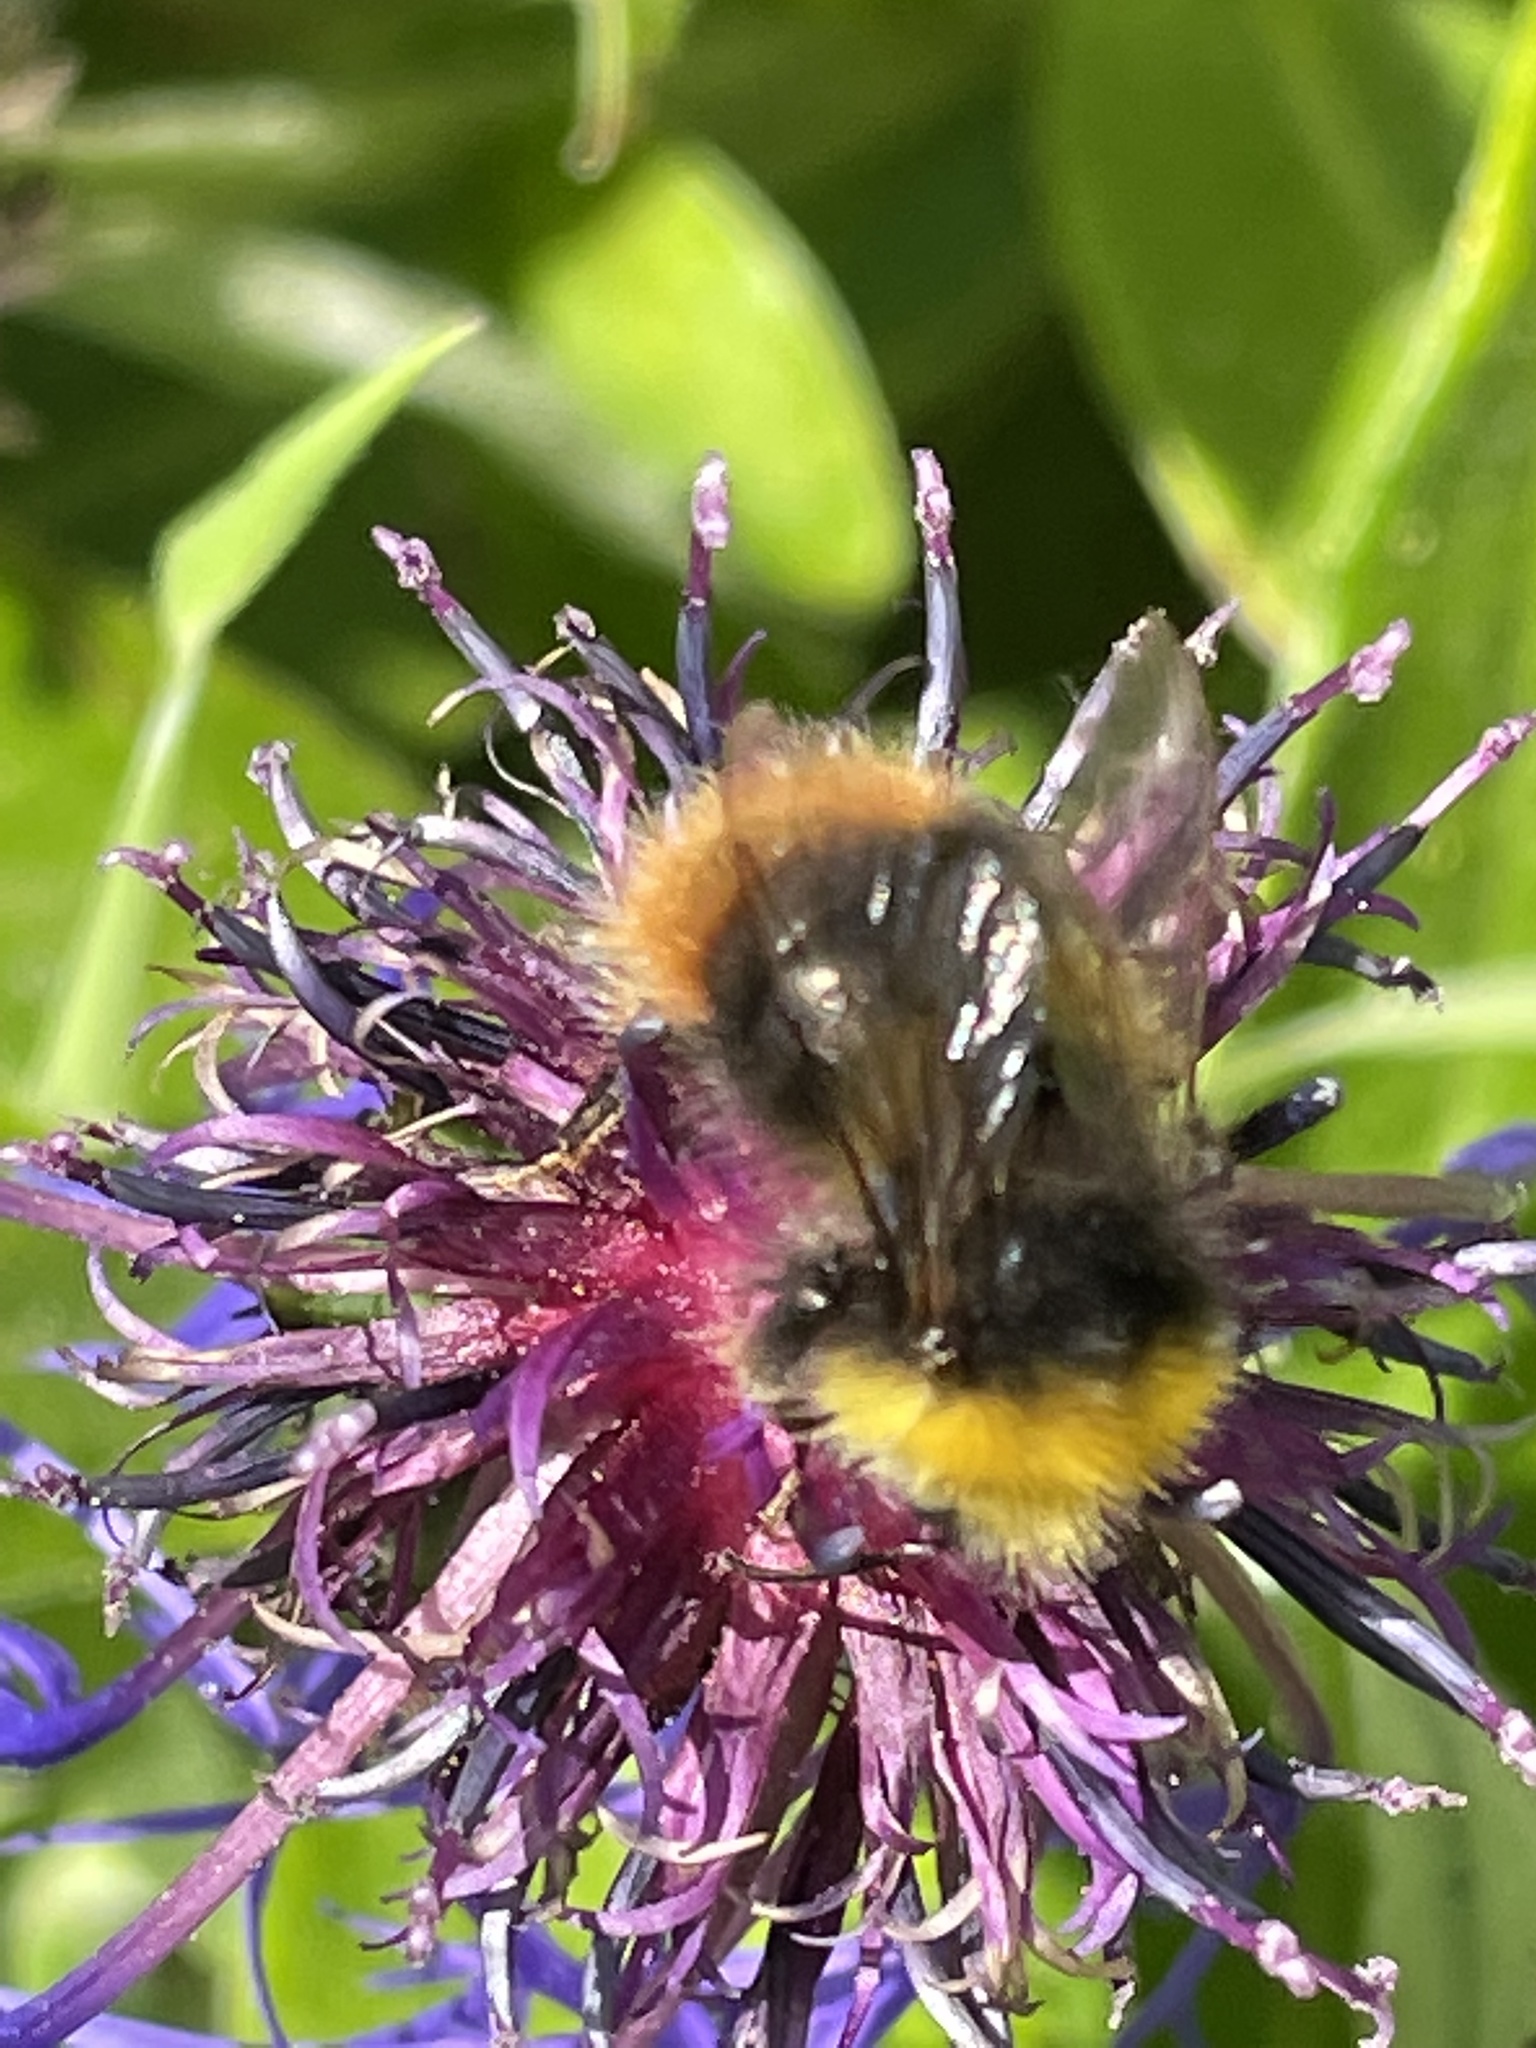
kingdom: Animalia
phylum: Arthropoda
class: Insecta
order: Hymenoptera
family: Apidae
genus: Bombus
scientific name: Bombus pratorum
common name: Early humble-bee
